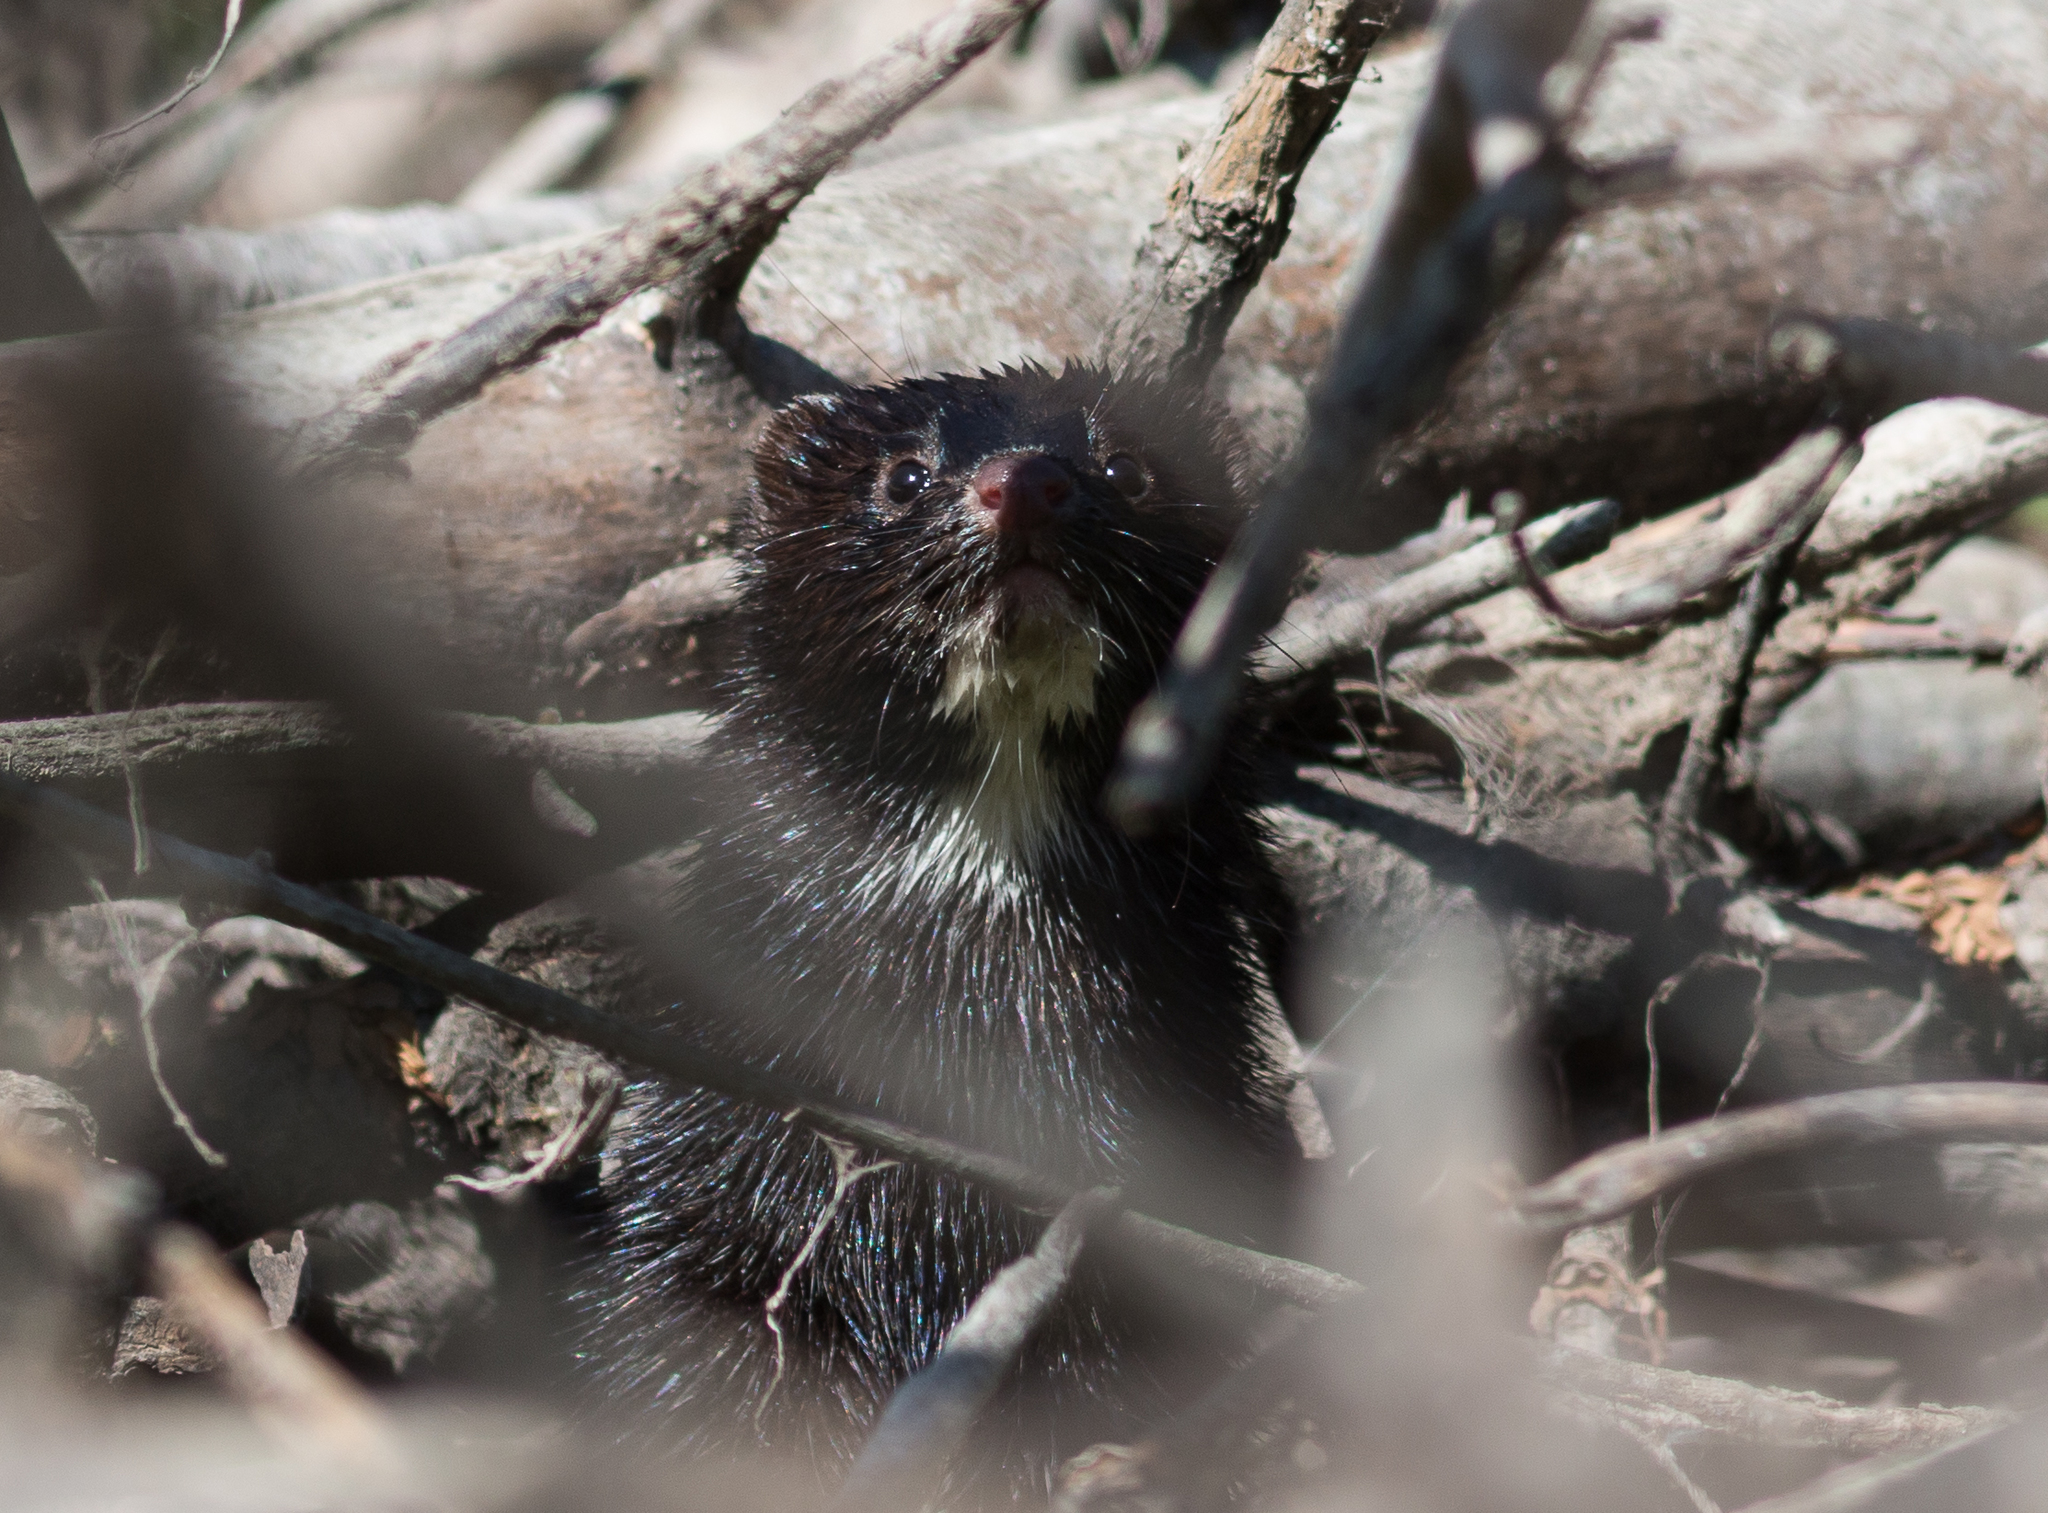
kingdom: Animalia
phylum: Chordata
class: Mammalia
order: Carnivora
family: Mustelidae
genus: Mustela
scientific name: Mustela
